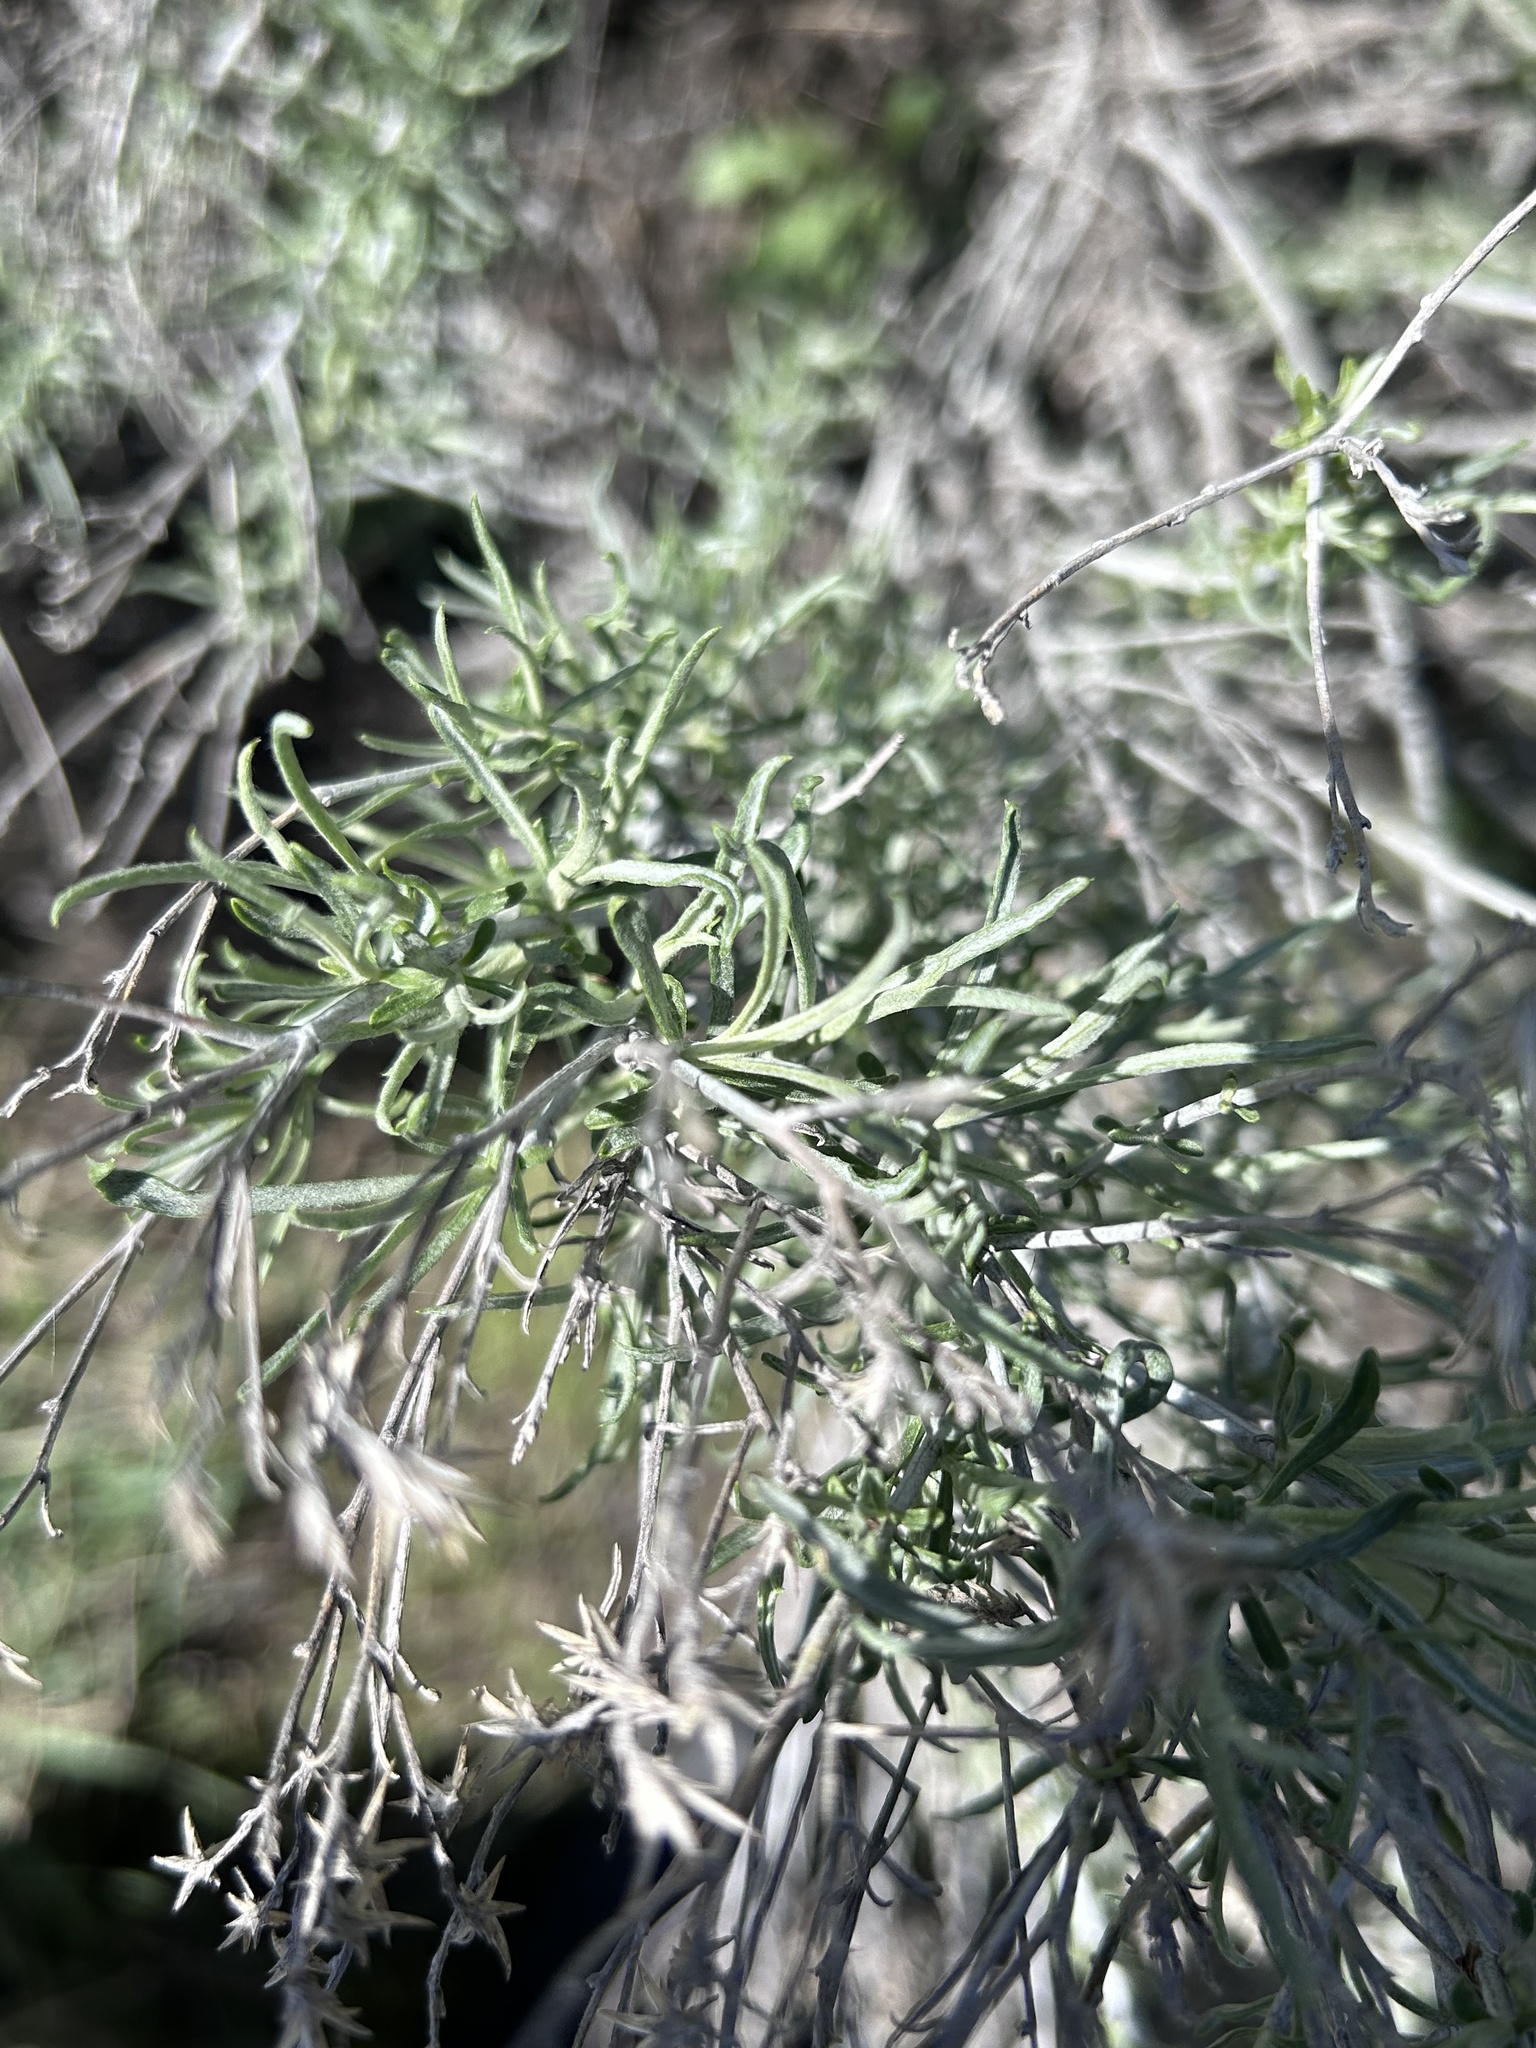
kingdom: Plantae
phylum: Tracheophyta
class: Magnoliopsida
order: Asterales
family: Asteraceae
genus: Ericameria
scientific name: Ericameria nauseosa
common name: Rubber rabbitbrush
